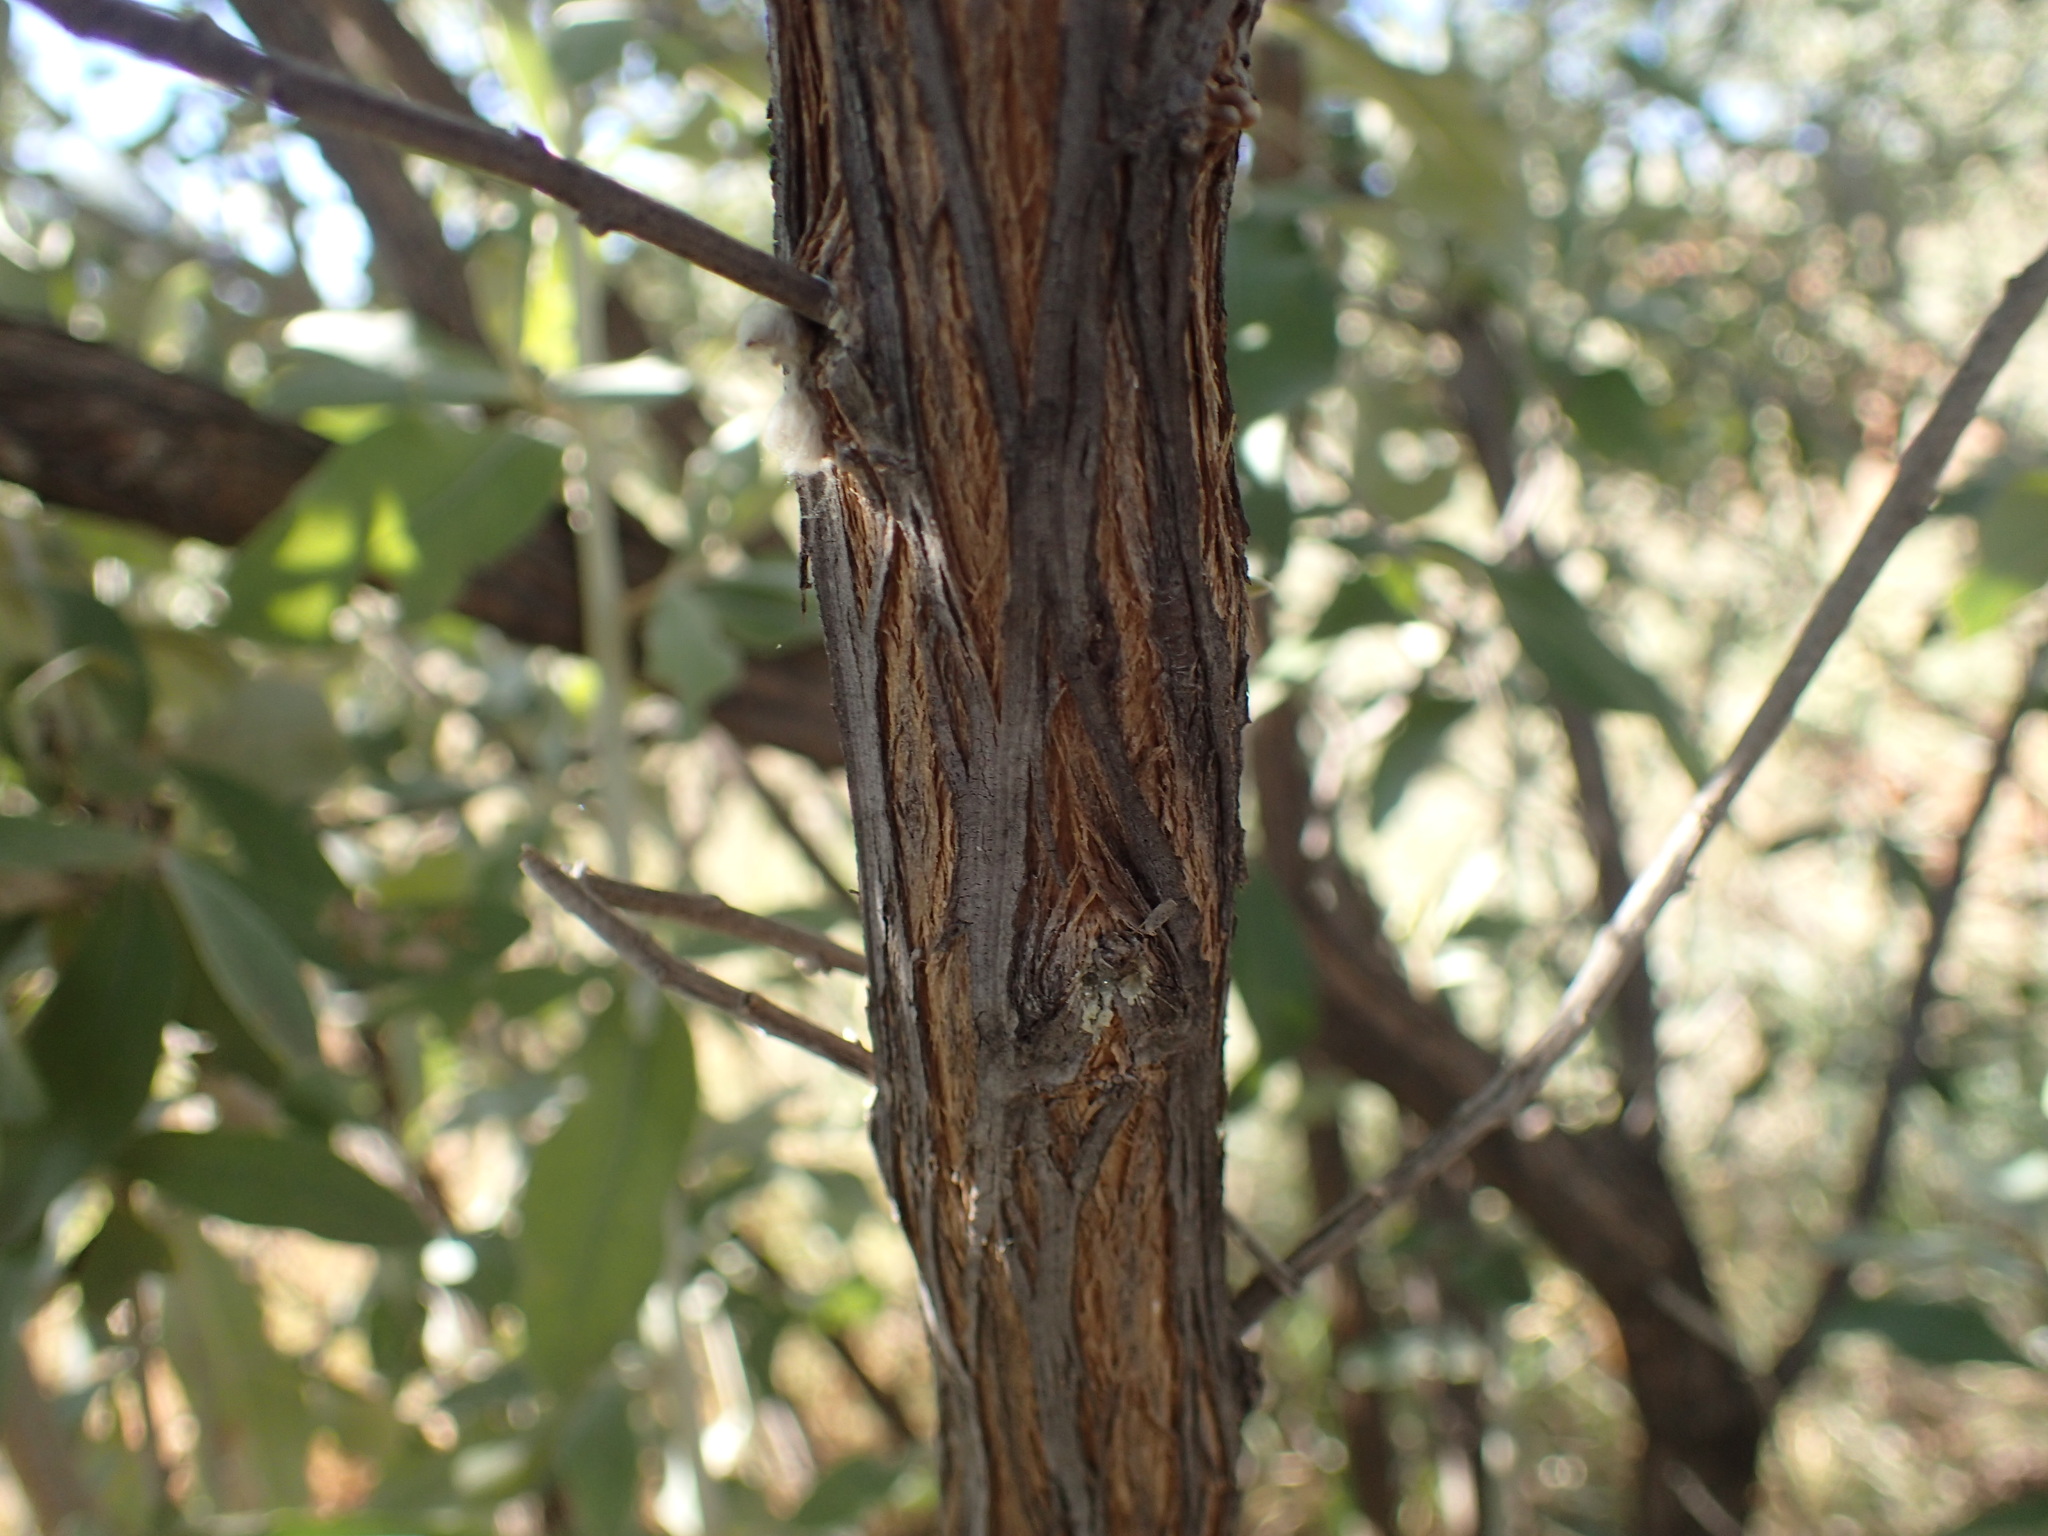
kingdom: Plantae
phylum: Tracheophyta
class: Magnoliopsida
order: Asterales
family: Asteraceae
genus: Tarchonanthus
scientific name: Tarchonanthus camphoratus
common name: Camphorwood
